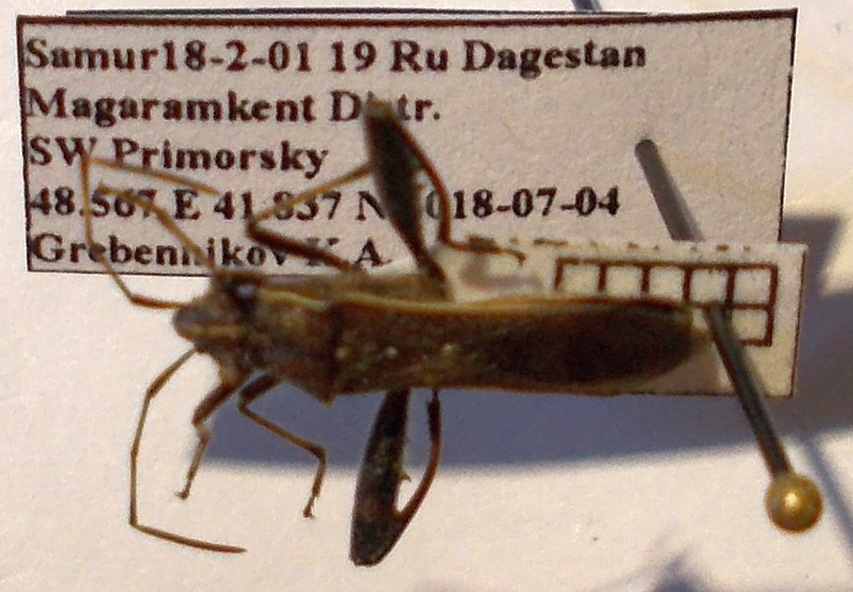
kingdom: Animalia
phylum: Arthropoda
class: Insecta
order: Hemiptera
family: Alydidae
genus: Camptopus
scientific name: Camptopus lateralis
